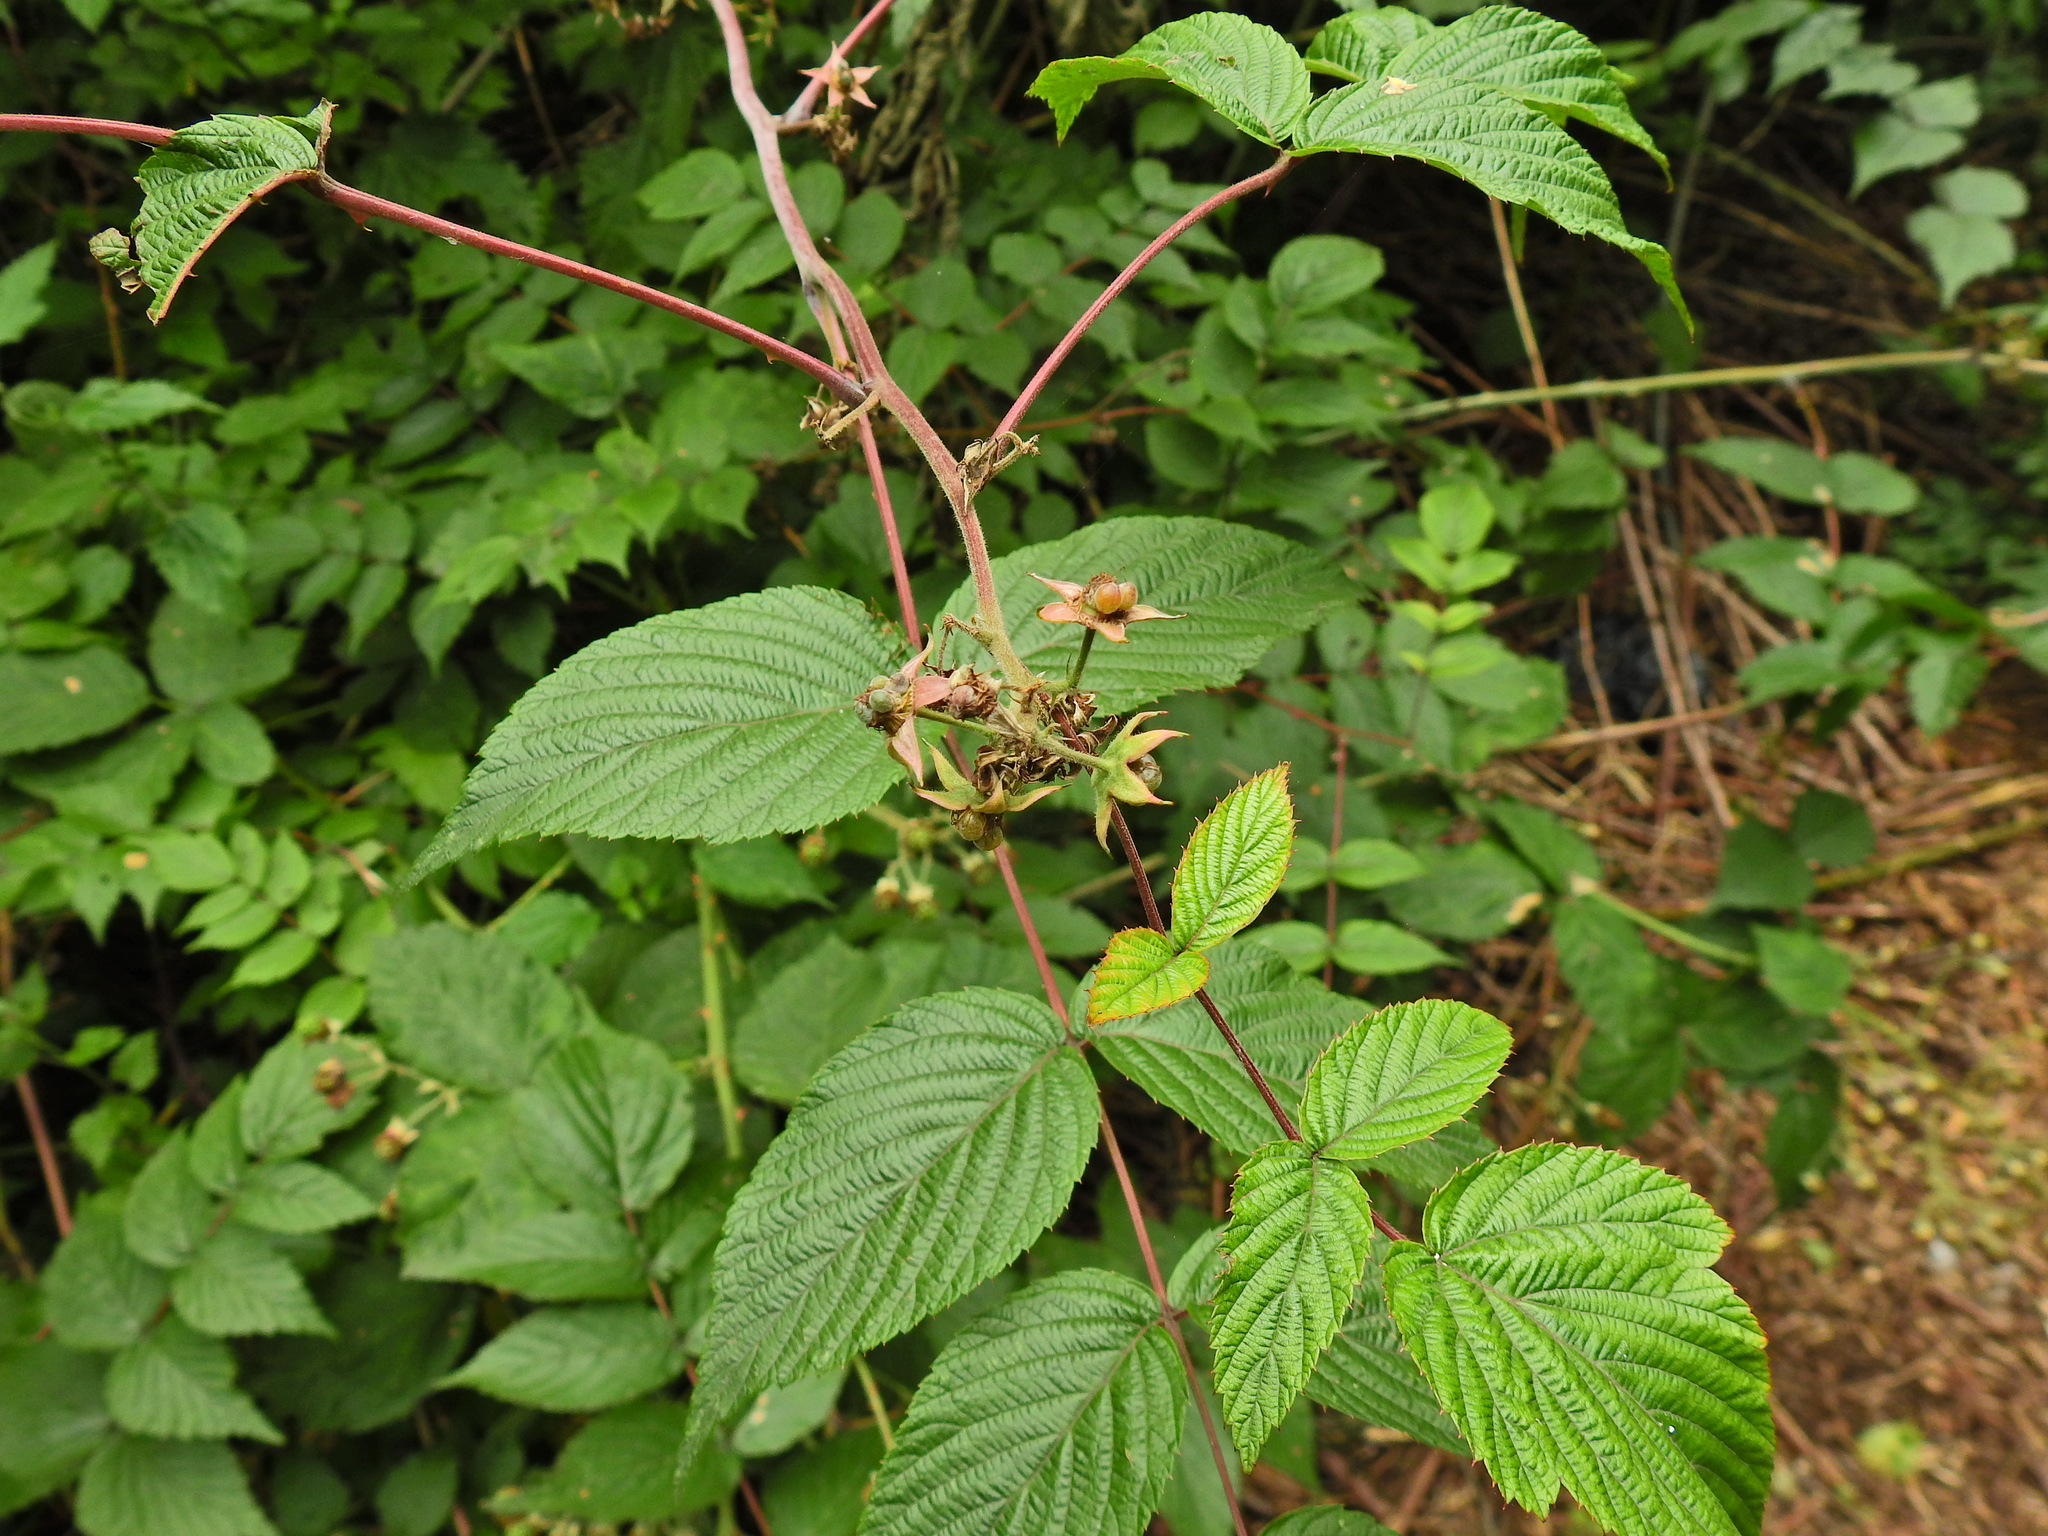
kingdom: Plantae
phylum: Tracheophyta
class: Magnoliopsida
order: Rosales
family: Rosaceae
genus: Rubus
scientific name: Rubus cockburnianus
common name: White-stemmed bramble
